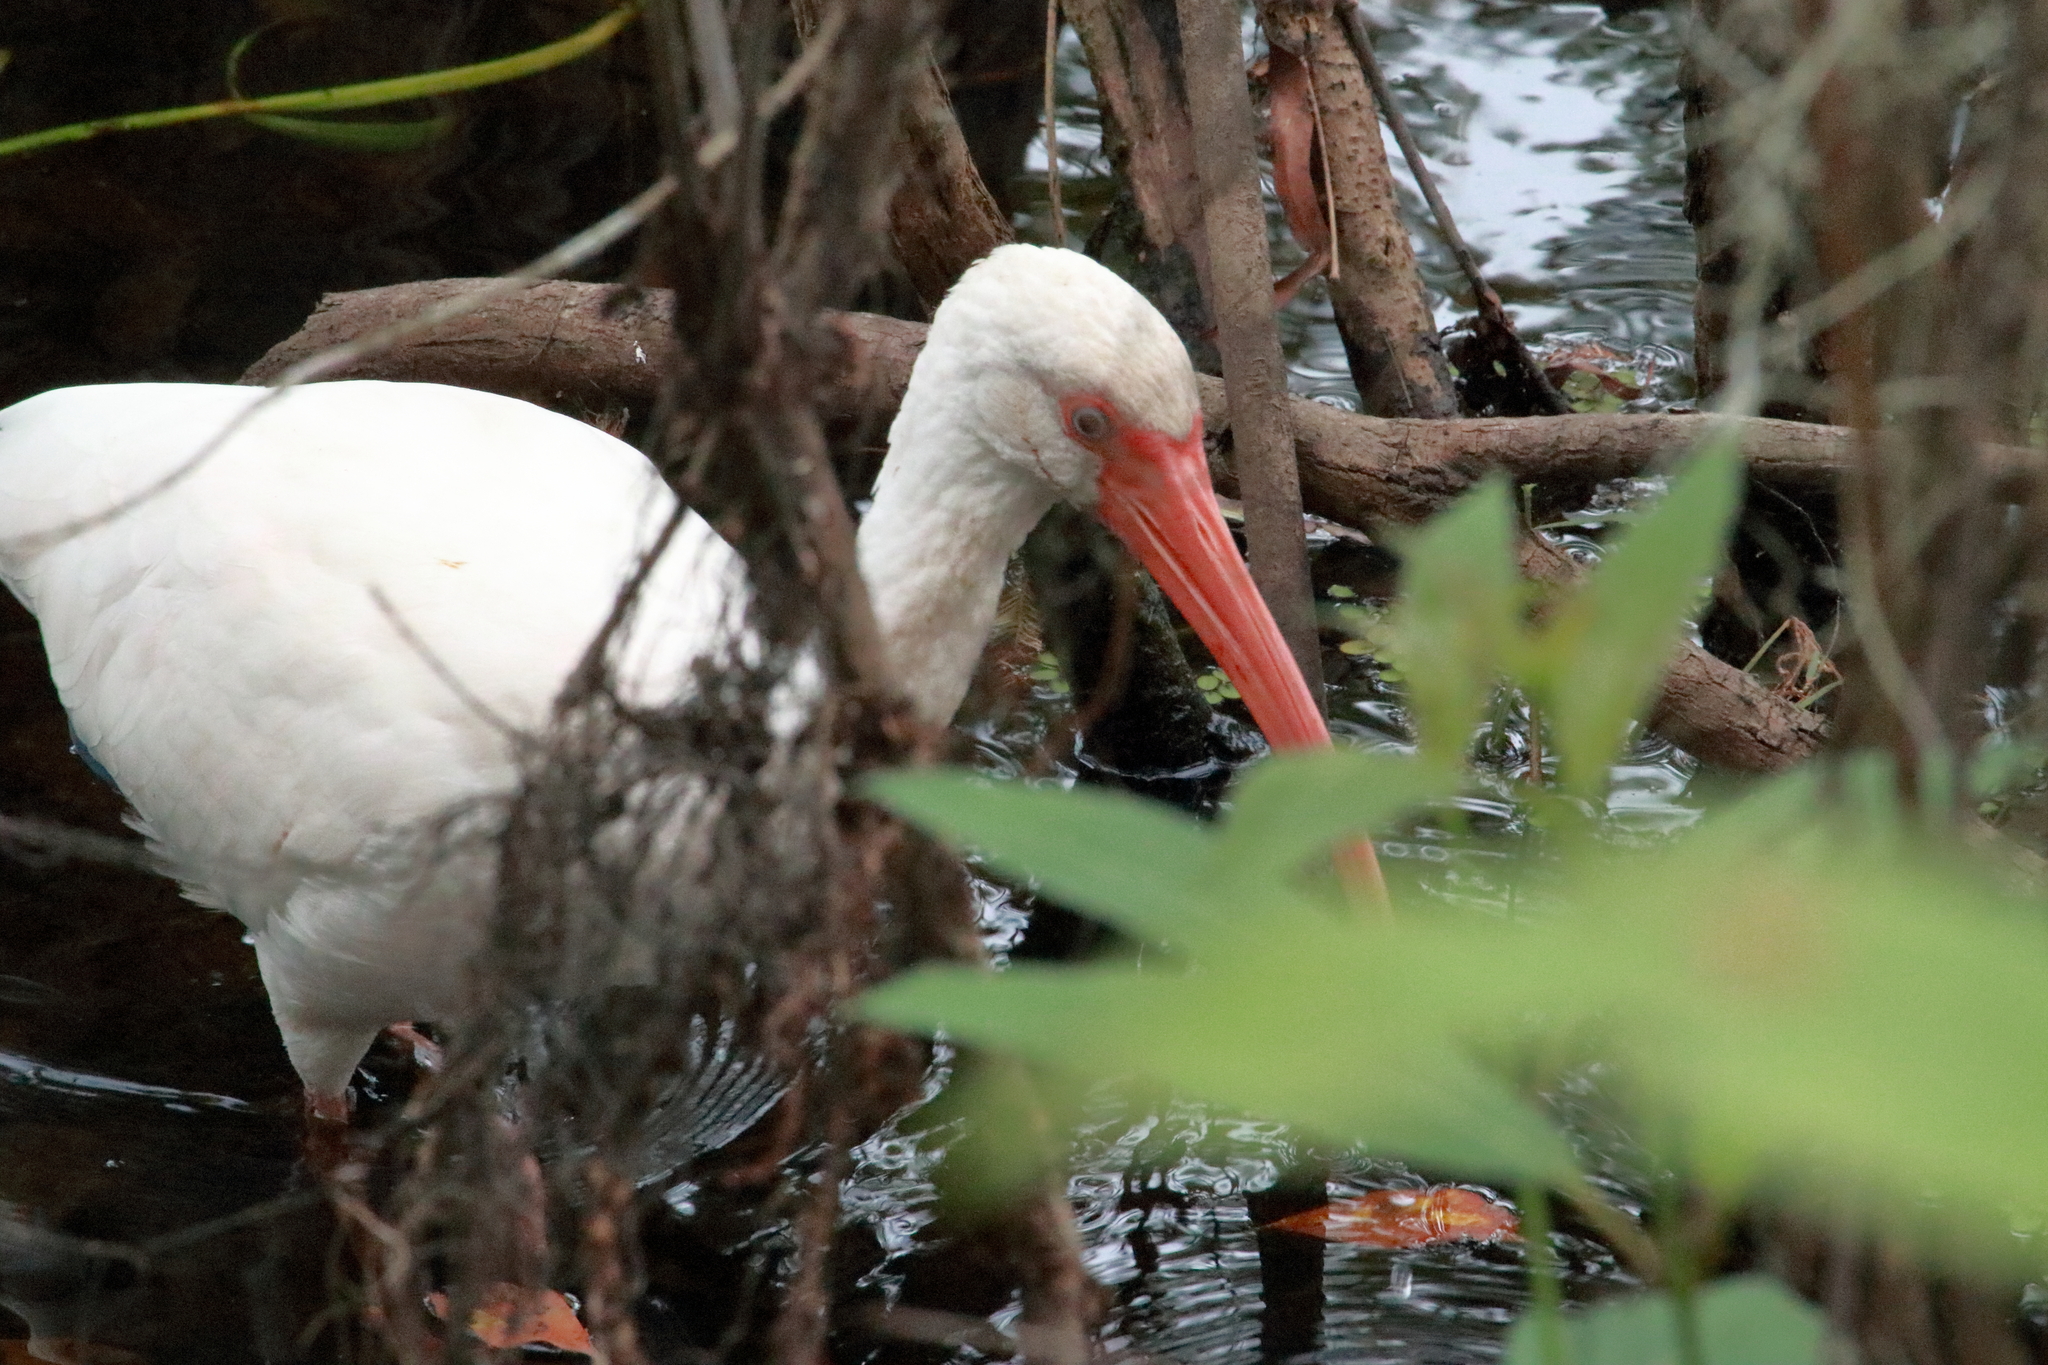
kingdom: Animalia
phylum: Chordata
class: Aves
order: Pelecaniformes
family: Threskiornithidae
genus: Eudocimus
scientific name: Eudocimus albus
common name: White ibis
